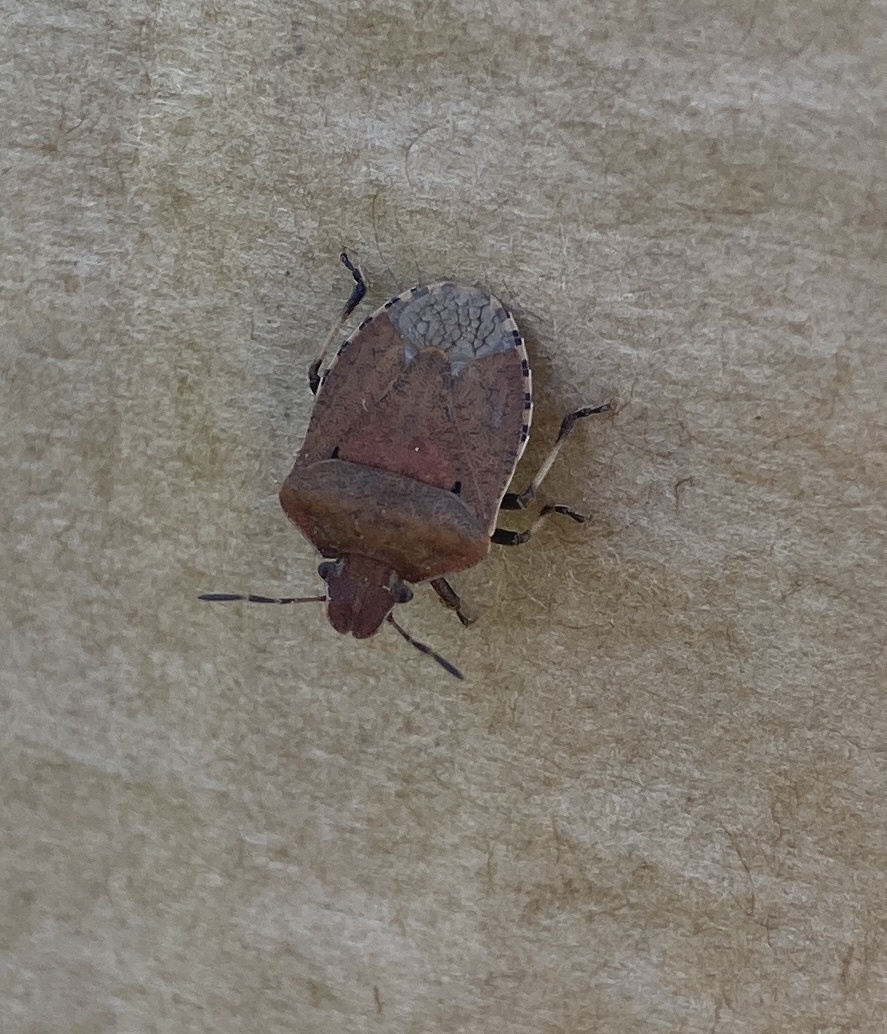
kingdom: Animalia
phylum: Arthropoda
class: Insecta
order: Hemiptera
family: Pentatomidae
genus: Dictyotus
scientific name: Dictyotus caenosus
